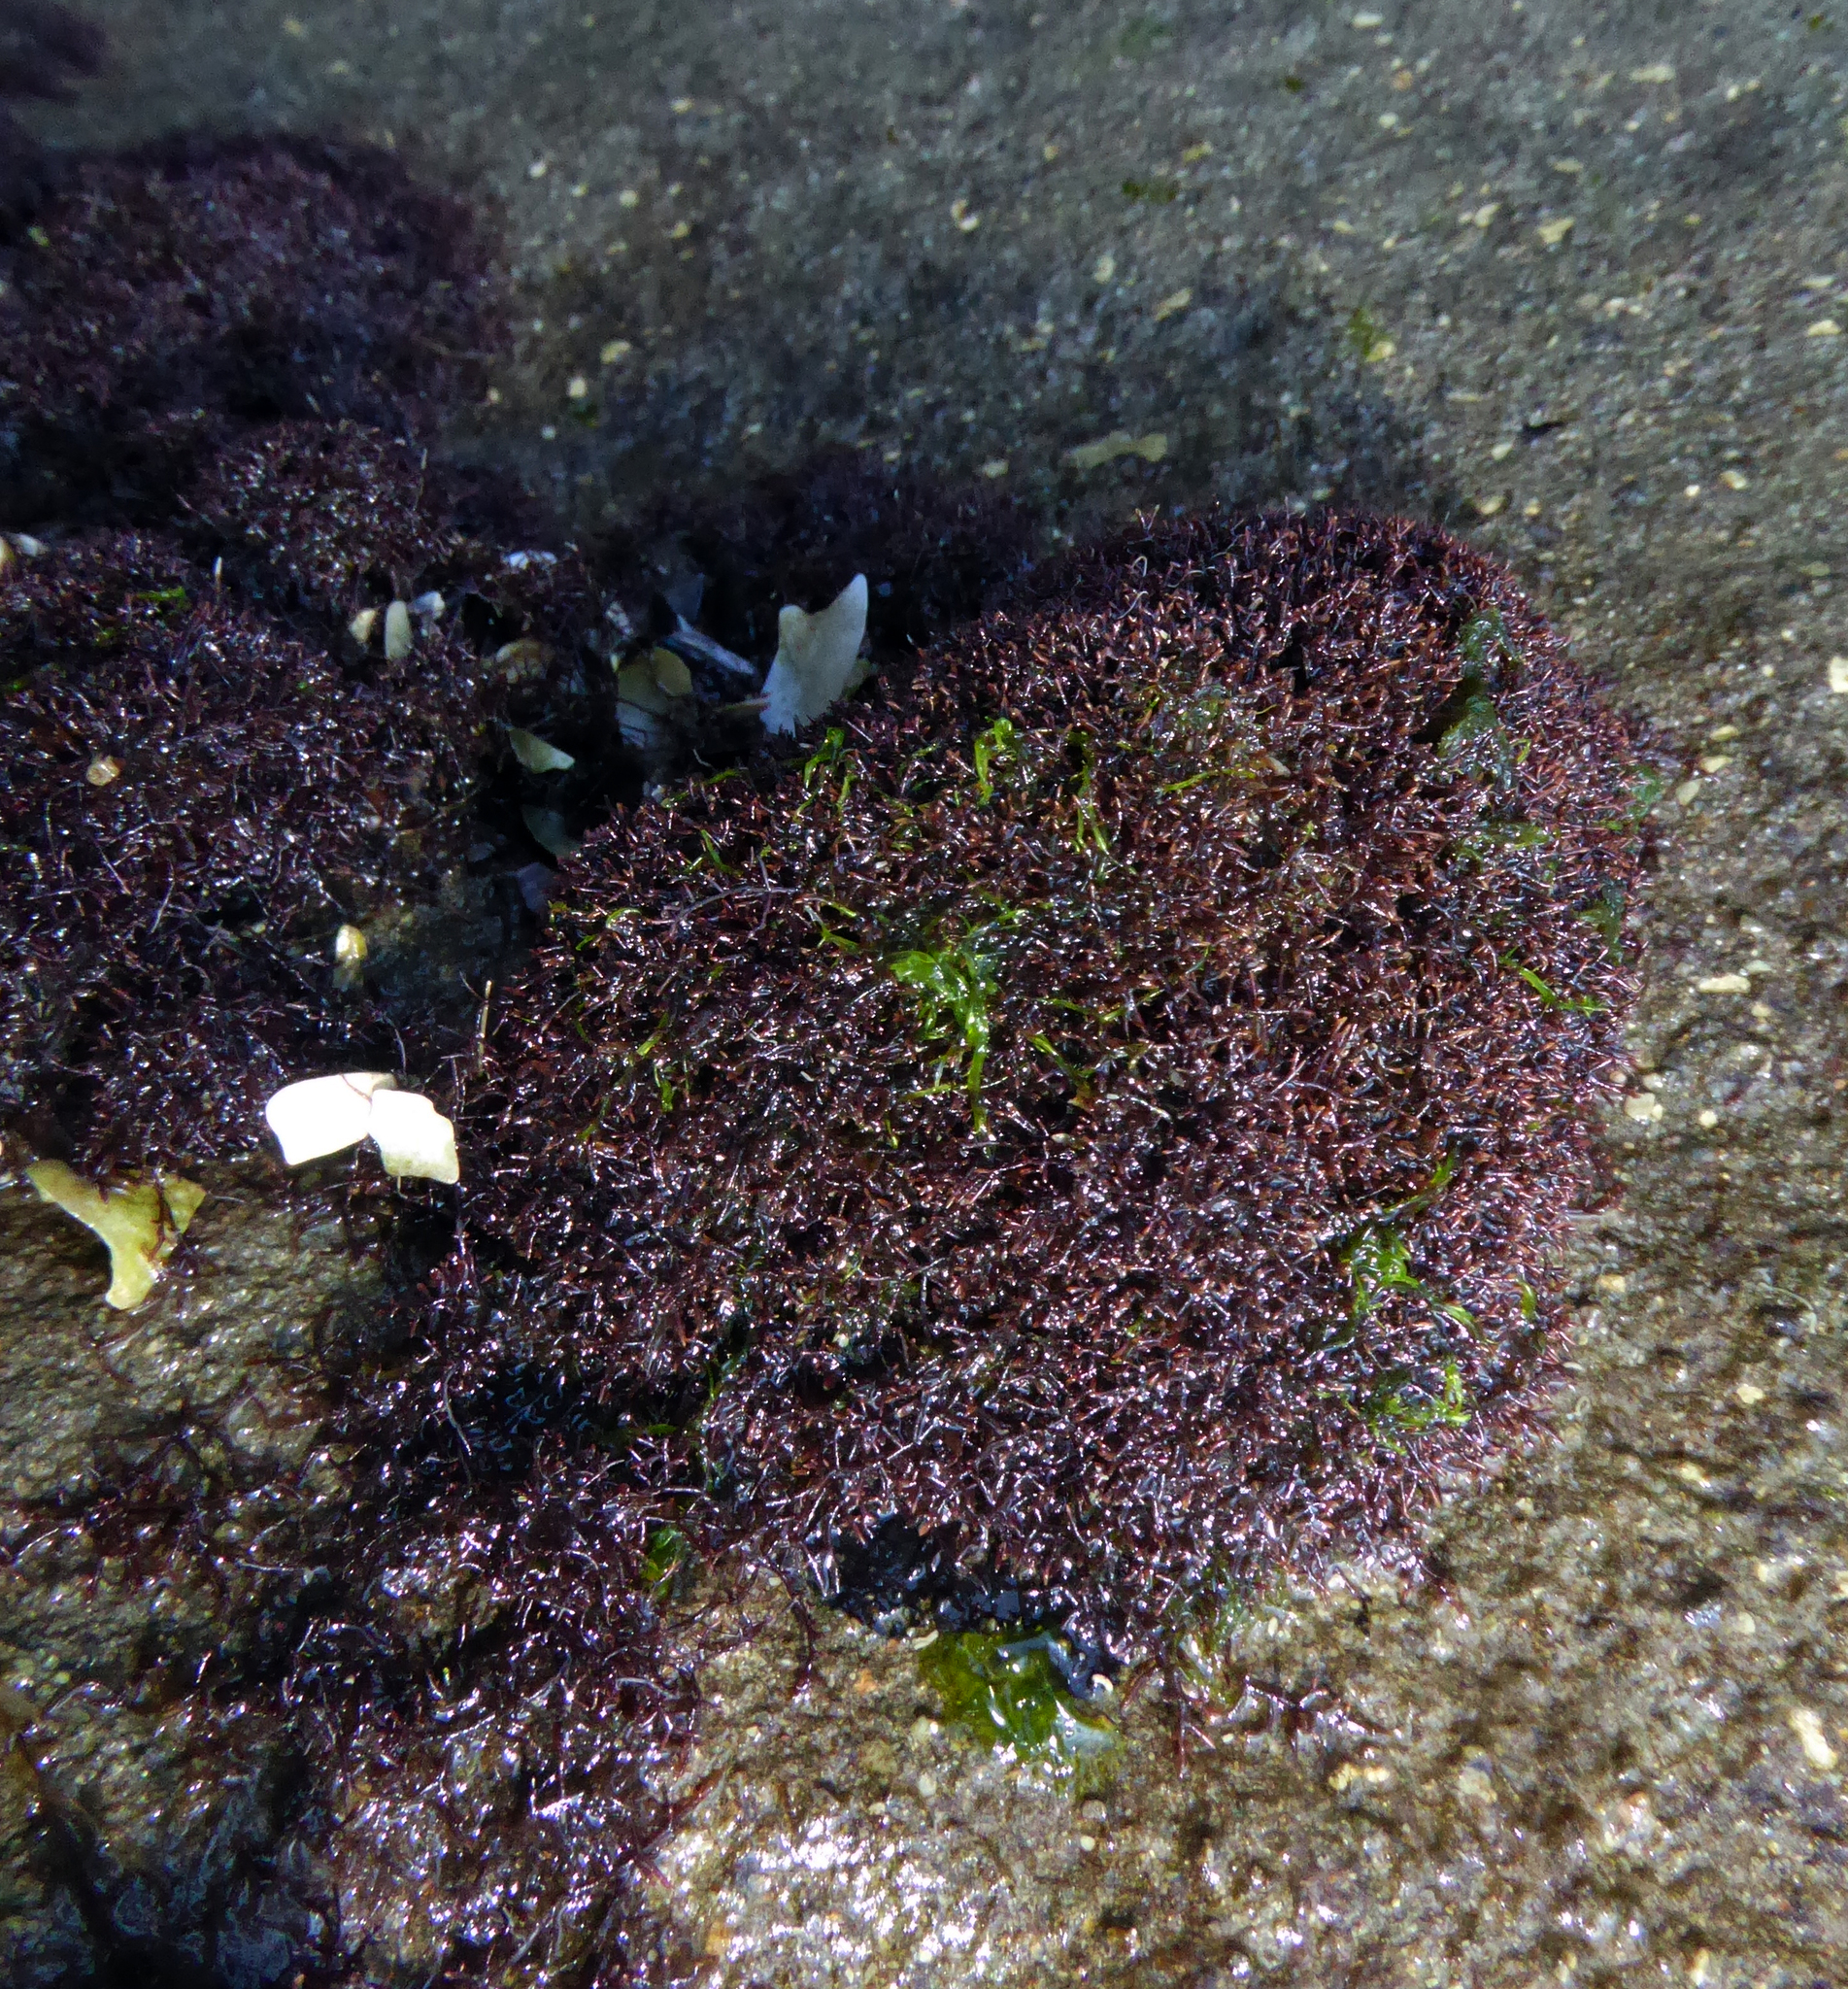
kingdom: Plantae
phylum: Rhodophyta
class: Florideophyceae
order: Gelidiales
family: Gelidiaceae
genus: Capreolia
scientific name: Capreolia implexa
